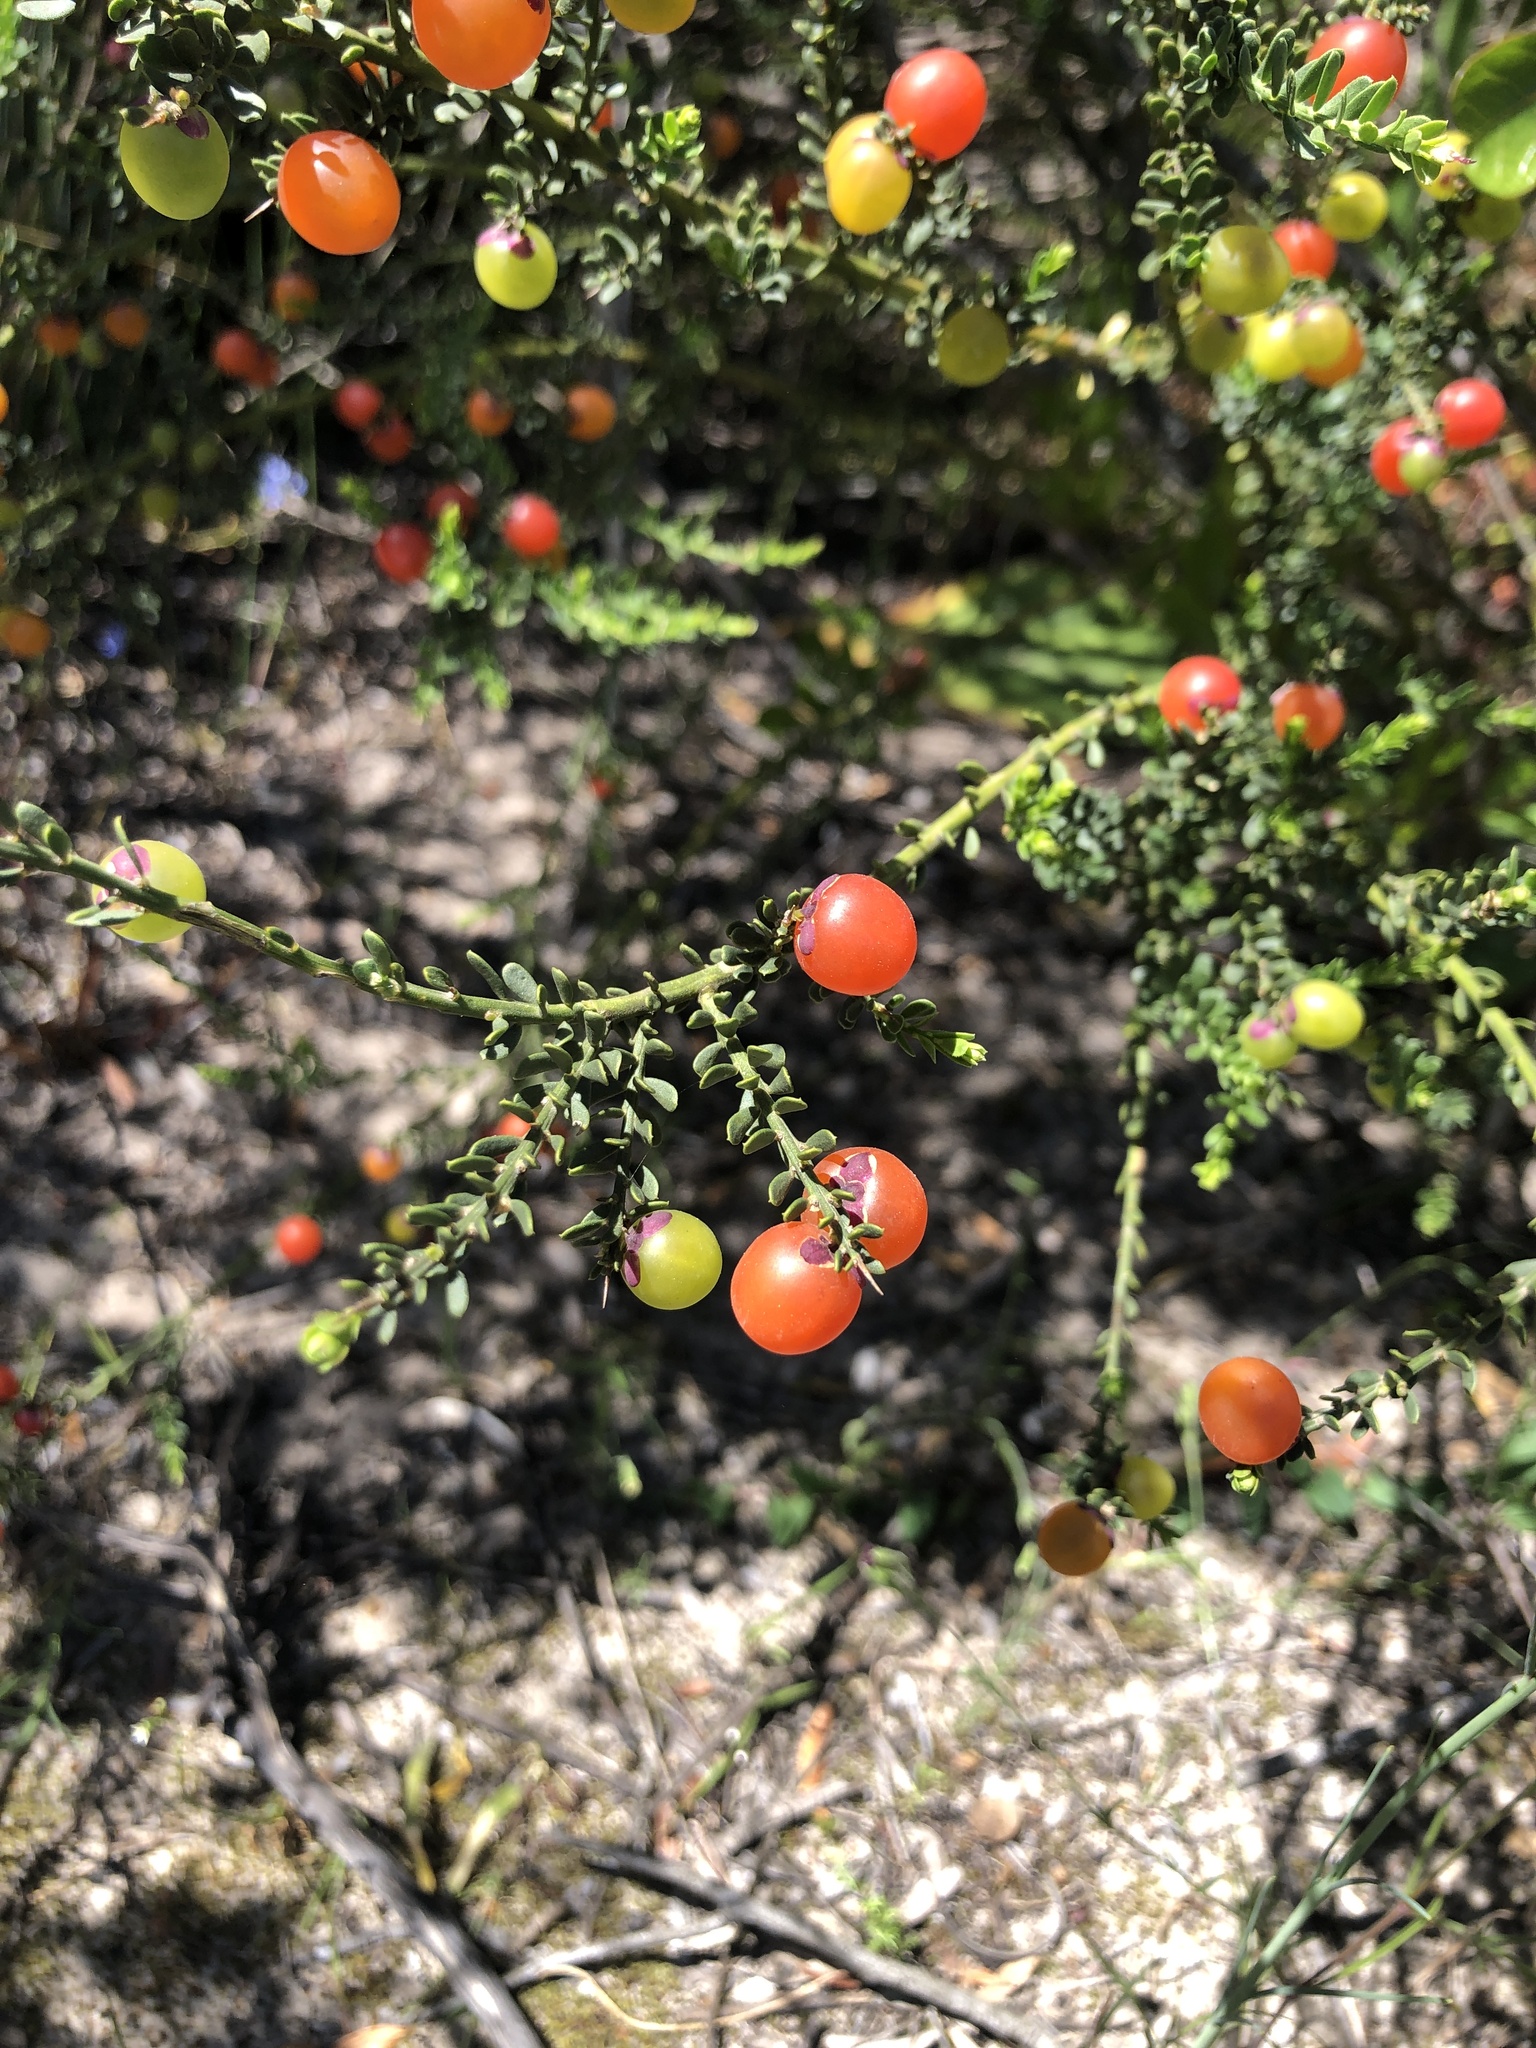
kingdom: Plantae
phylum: Tracheophyta
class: Magnoliopsida
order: Fabales
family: Polygalaceae
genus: Muraltia
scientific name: Muraltia spinosa
